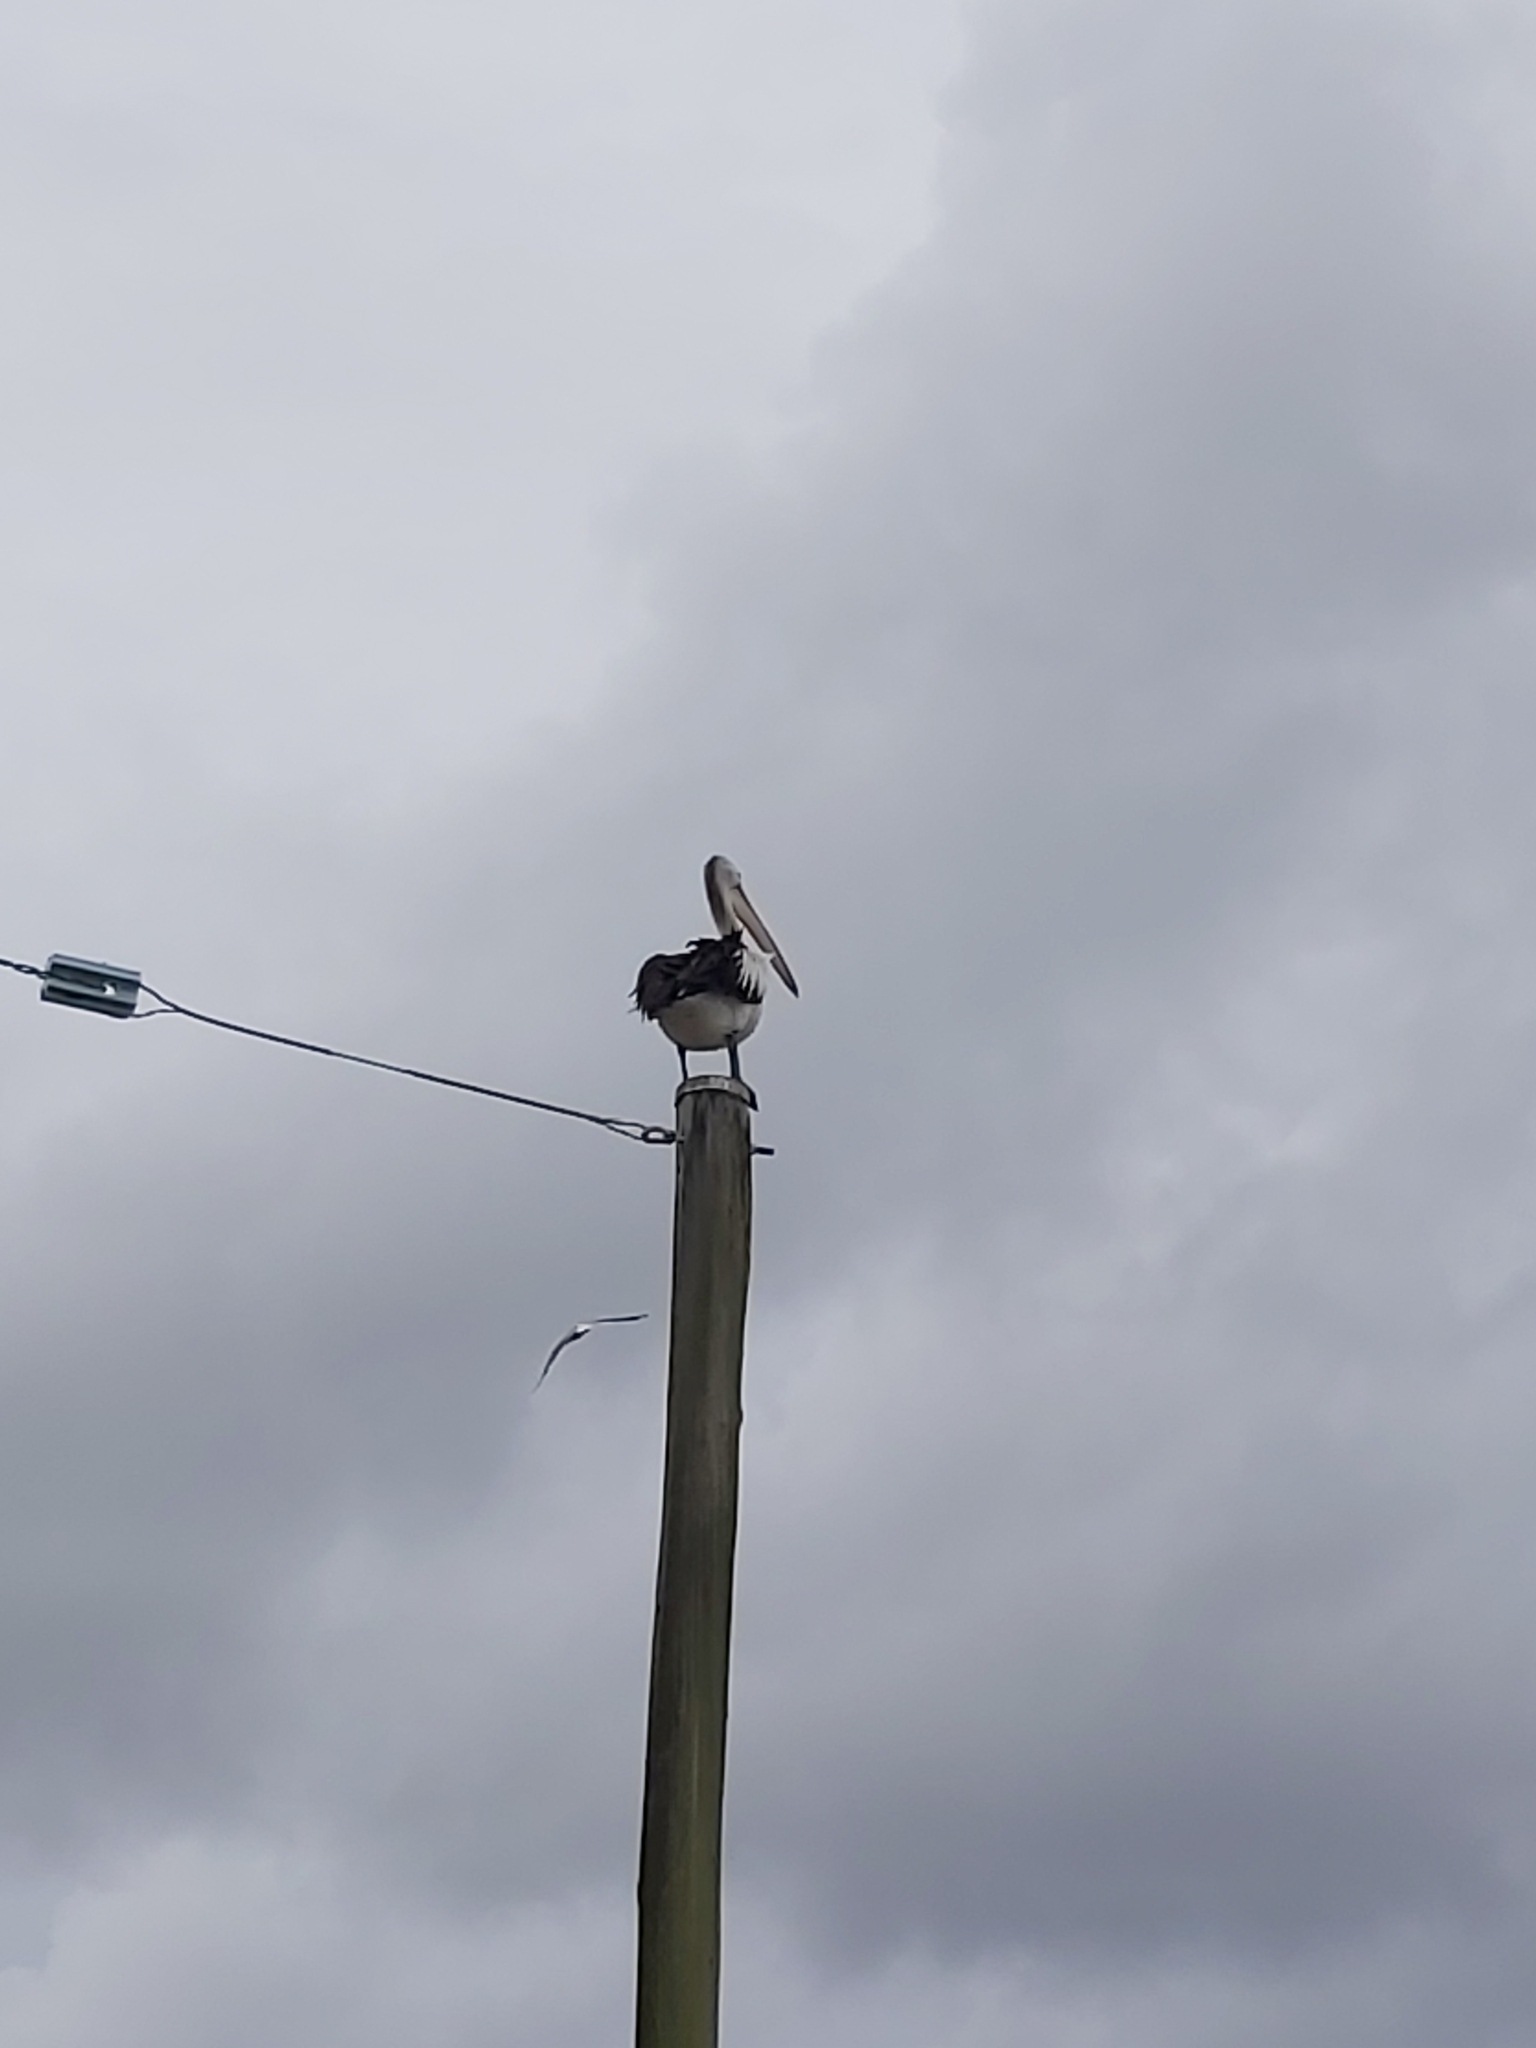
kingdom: Animalia
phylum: Chordata
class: Aves
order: Pelecaniformes
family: Pelecanidae
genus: Pelecanus
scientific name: Pelecanus conspicillatus
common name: Australian pelican
